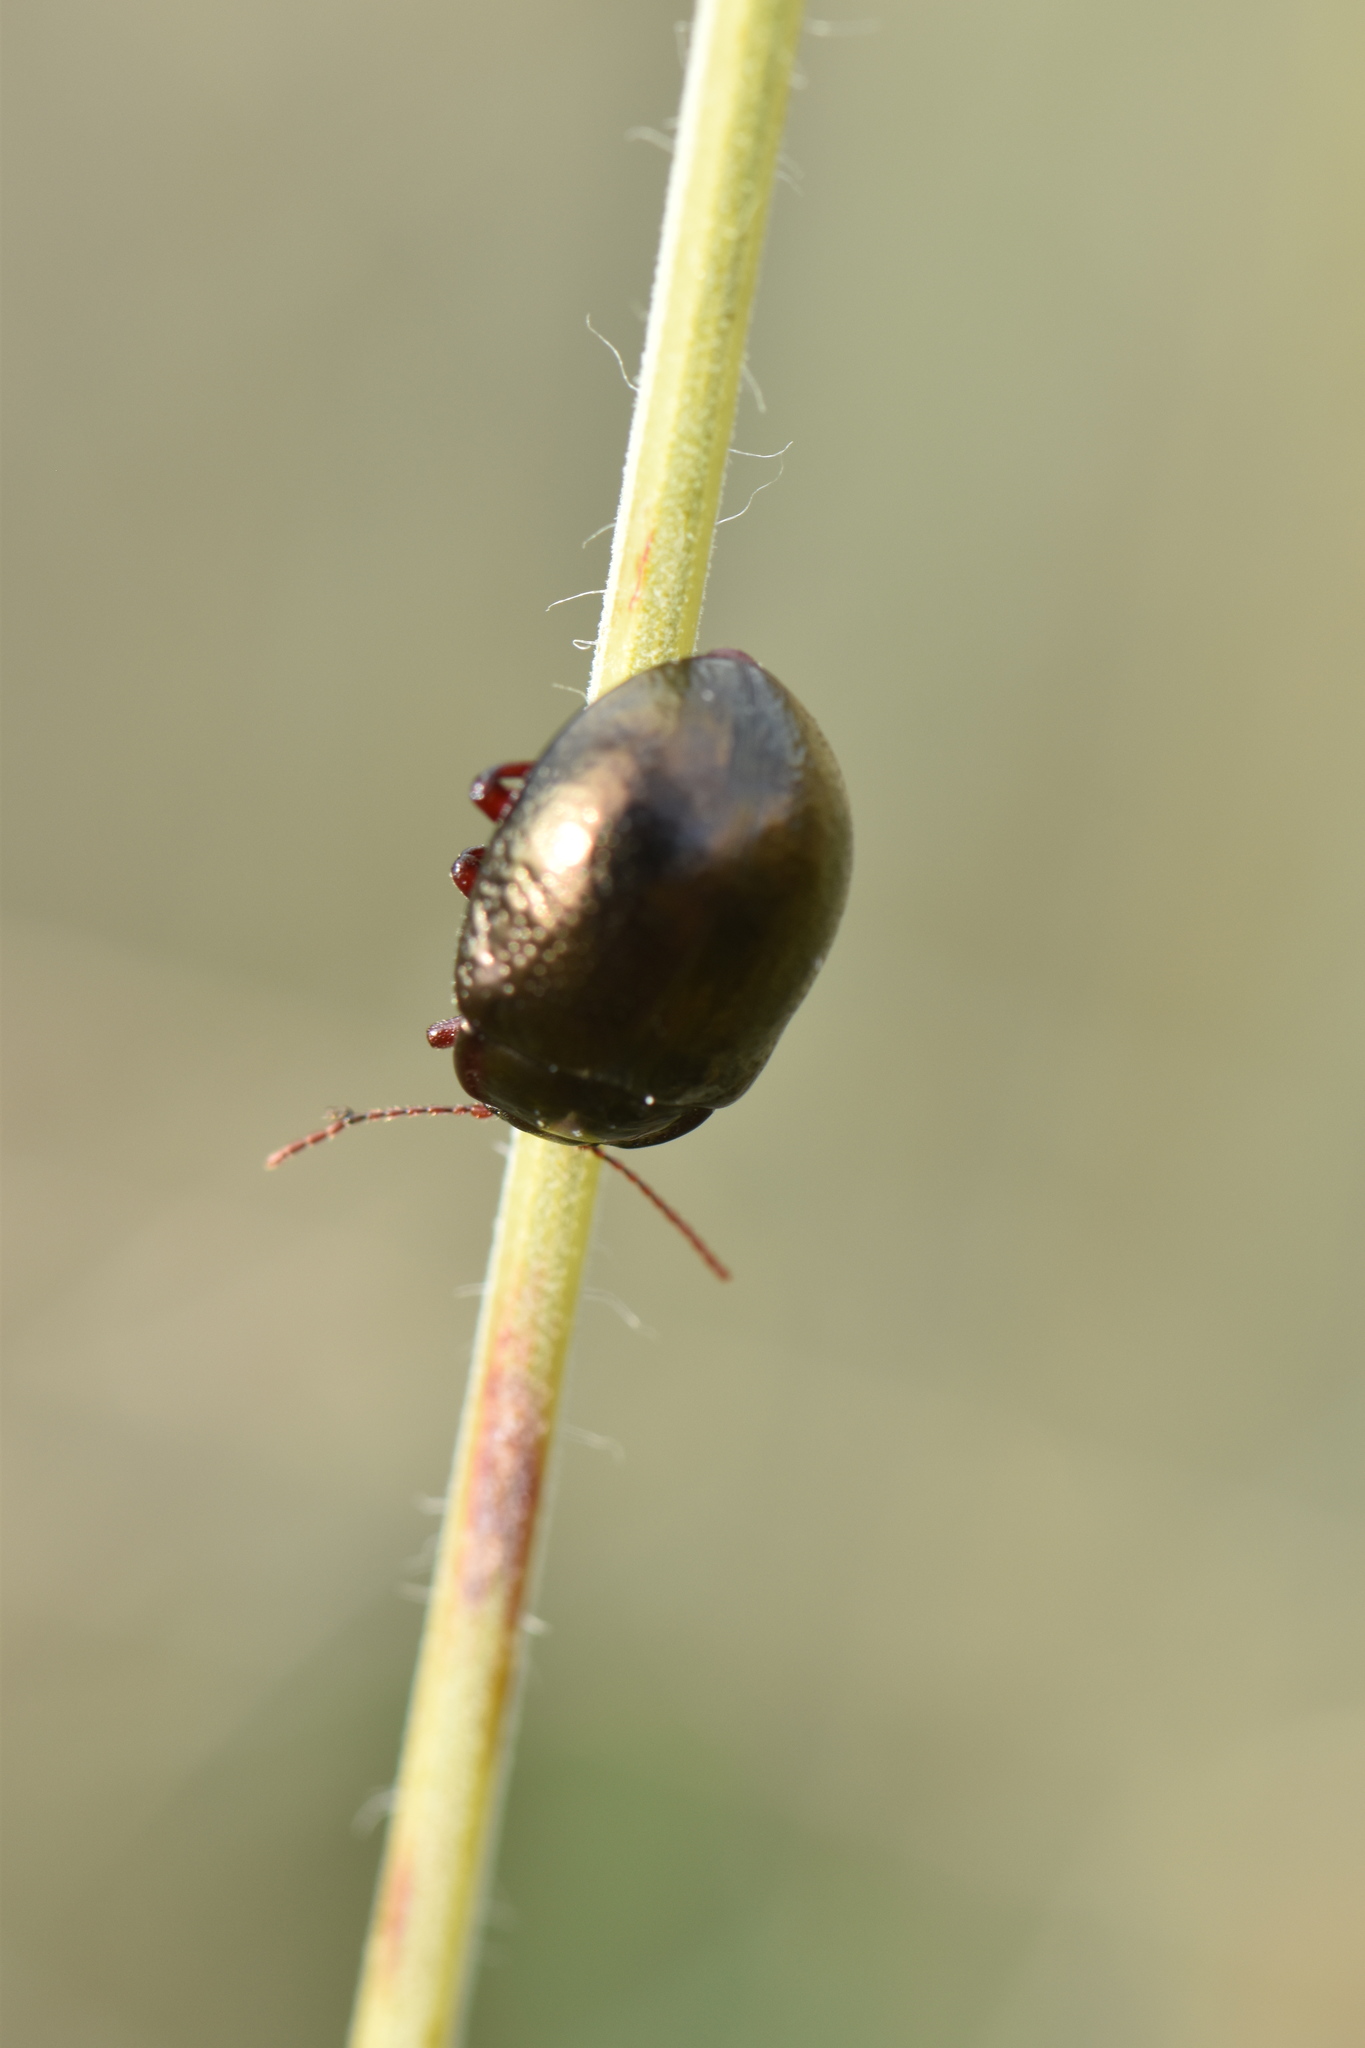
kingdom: Animalia
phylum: Arthropoda
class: Insecta
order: Coleoptera
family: Chrysomelidae
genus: Chrysolina
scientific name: Chrysolina bankii
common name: Leaf beetle
